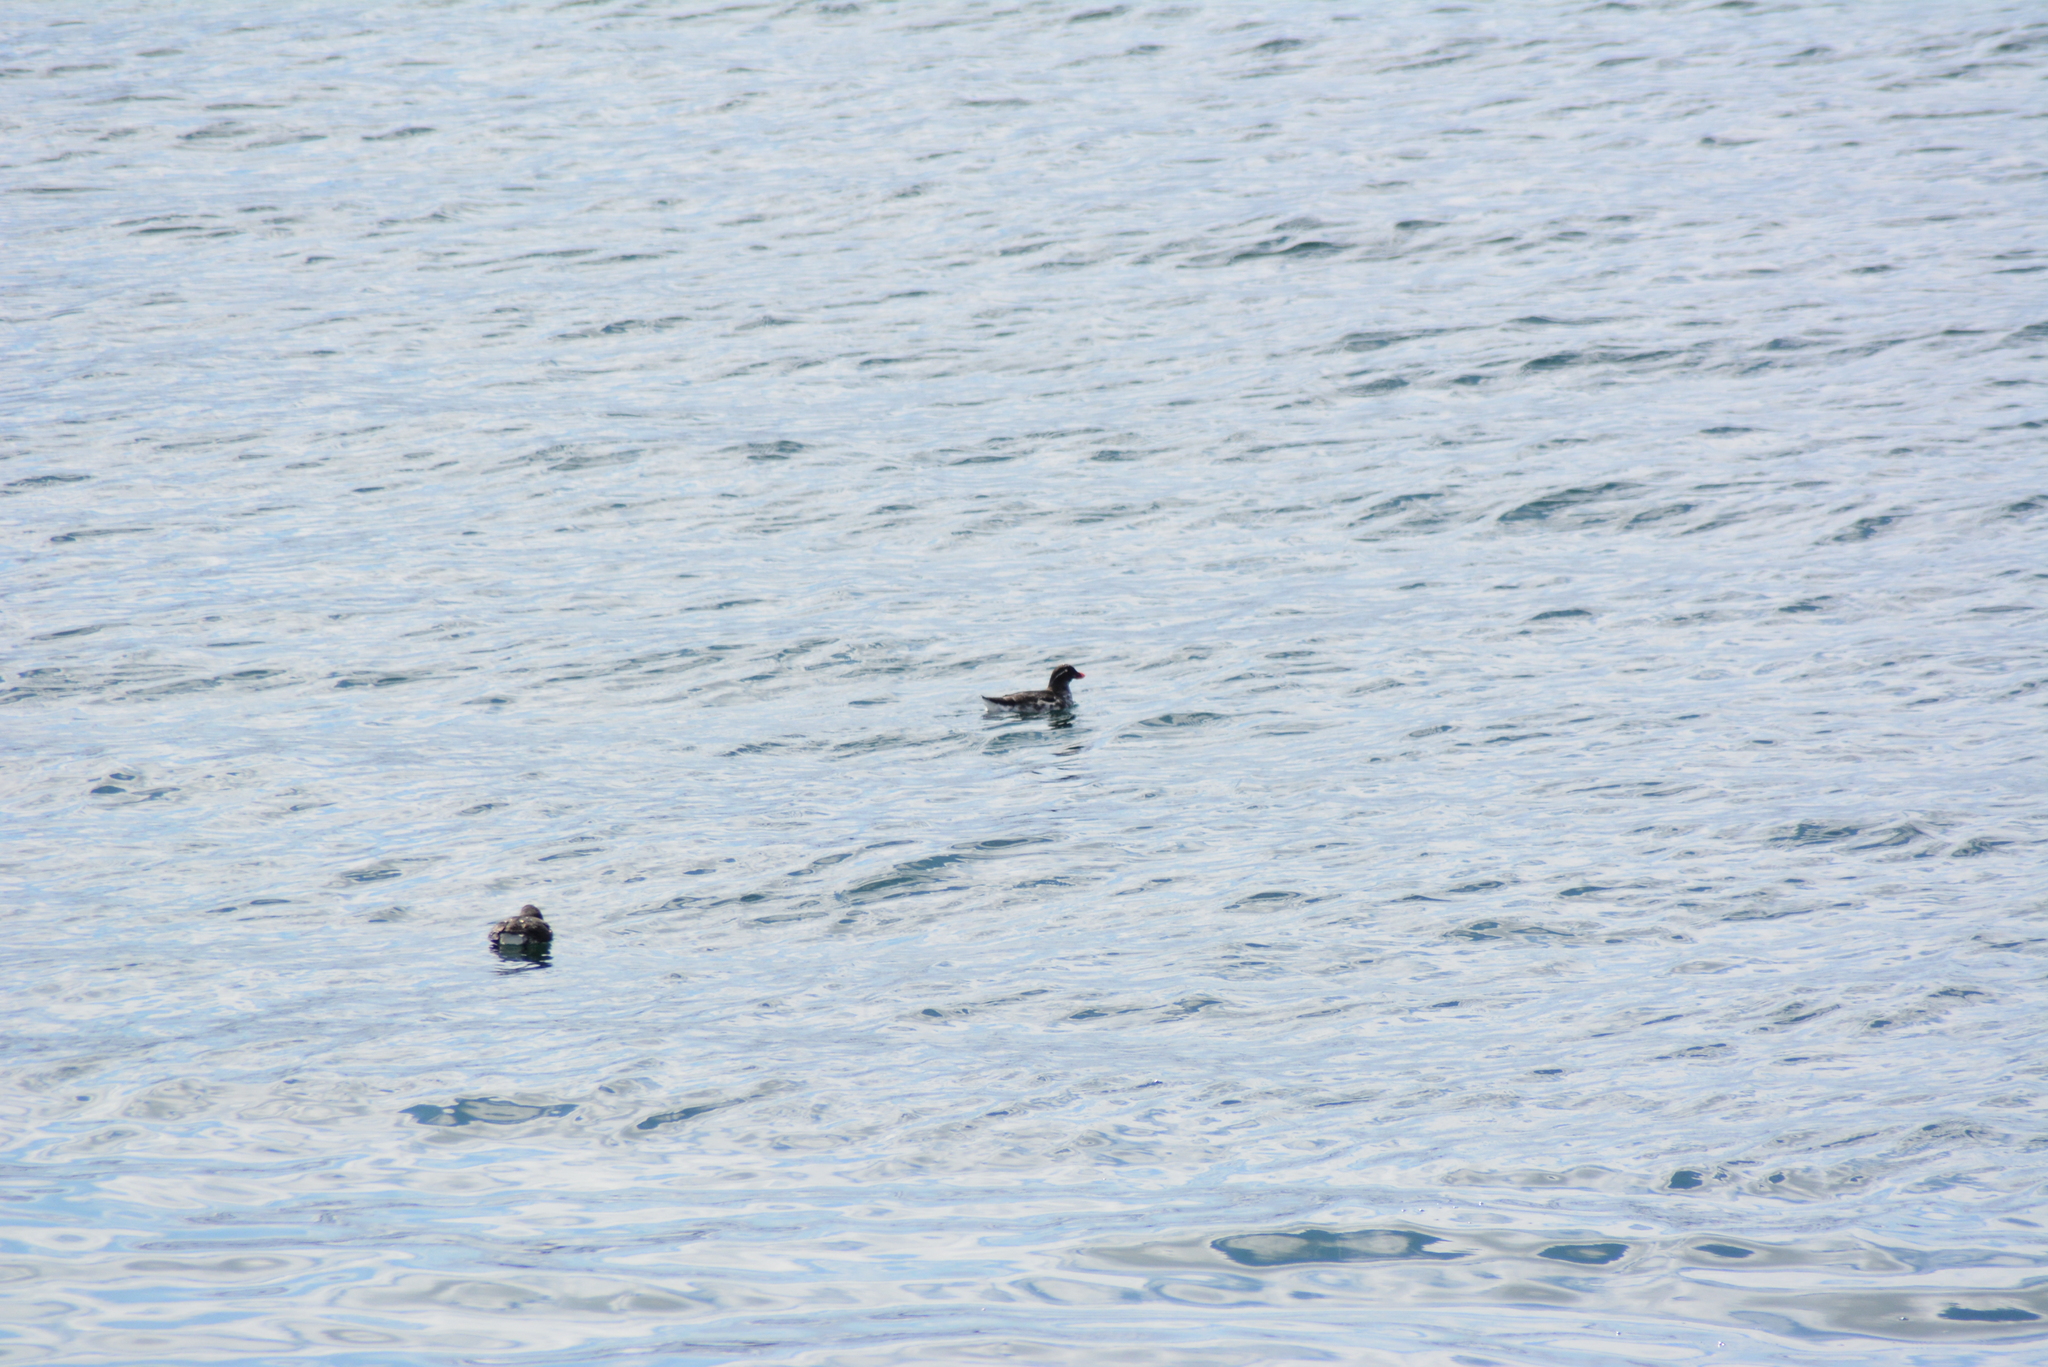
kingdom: Animalia
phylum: Chordata
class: Aves
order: Charadriiformes
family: Alcidae
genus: Aethia
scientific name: Aethia psittacula
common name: Parakeet auklet
